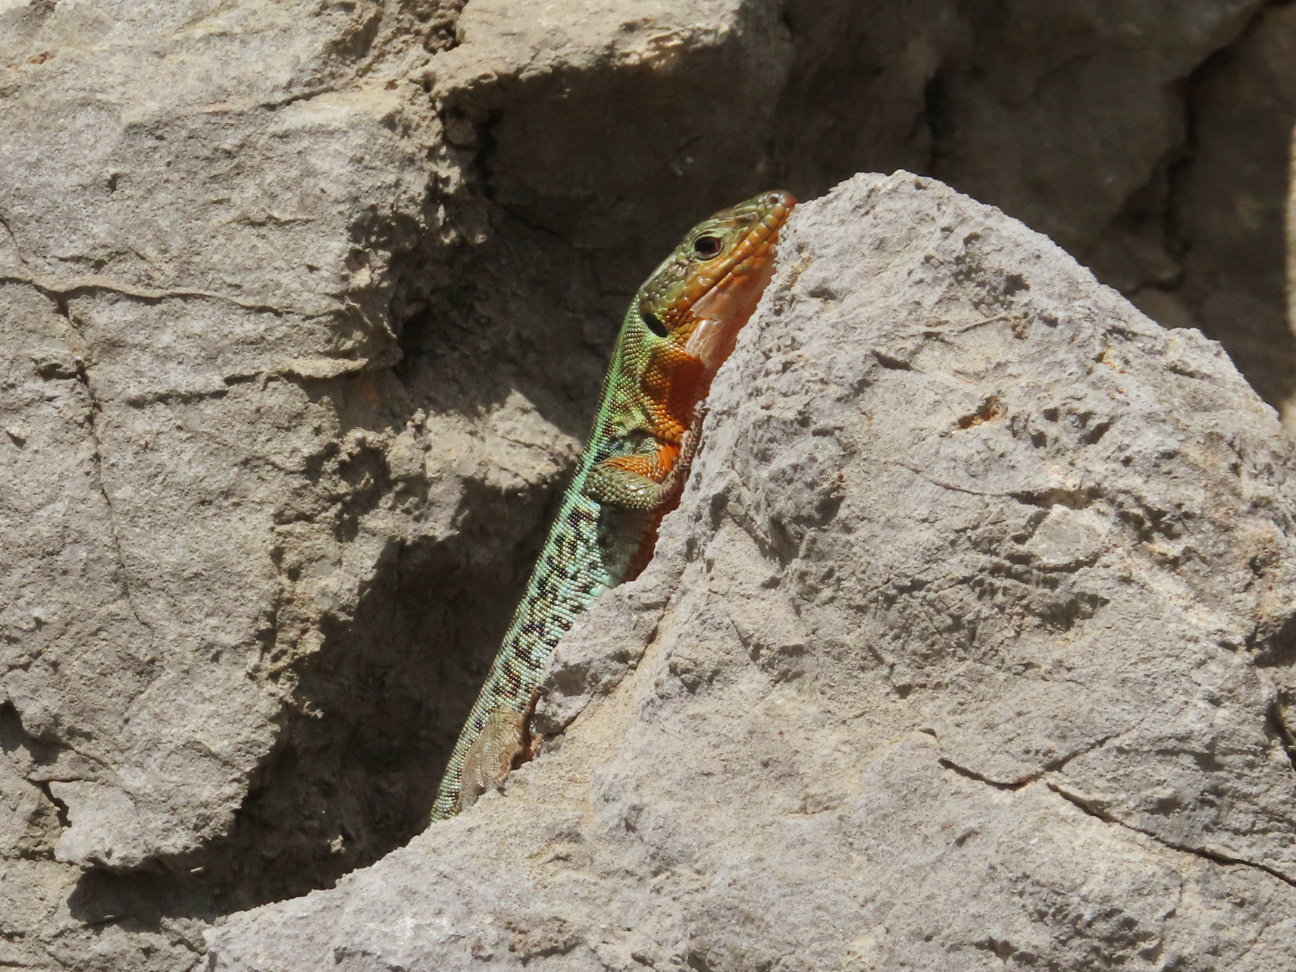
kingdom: Animalia
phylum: Chordata
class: Squamata
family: Lacertidae
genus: Podarcis
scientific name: Podarcis peloponnesiacus
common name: Peloponnese wall lizard
